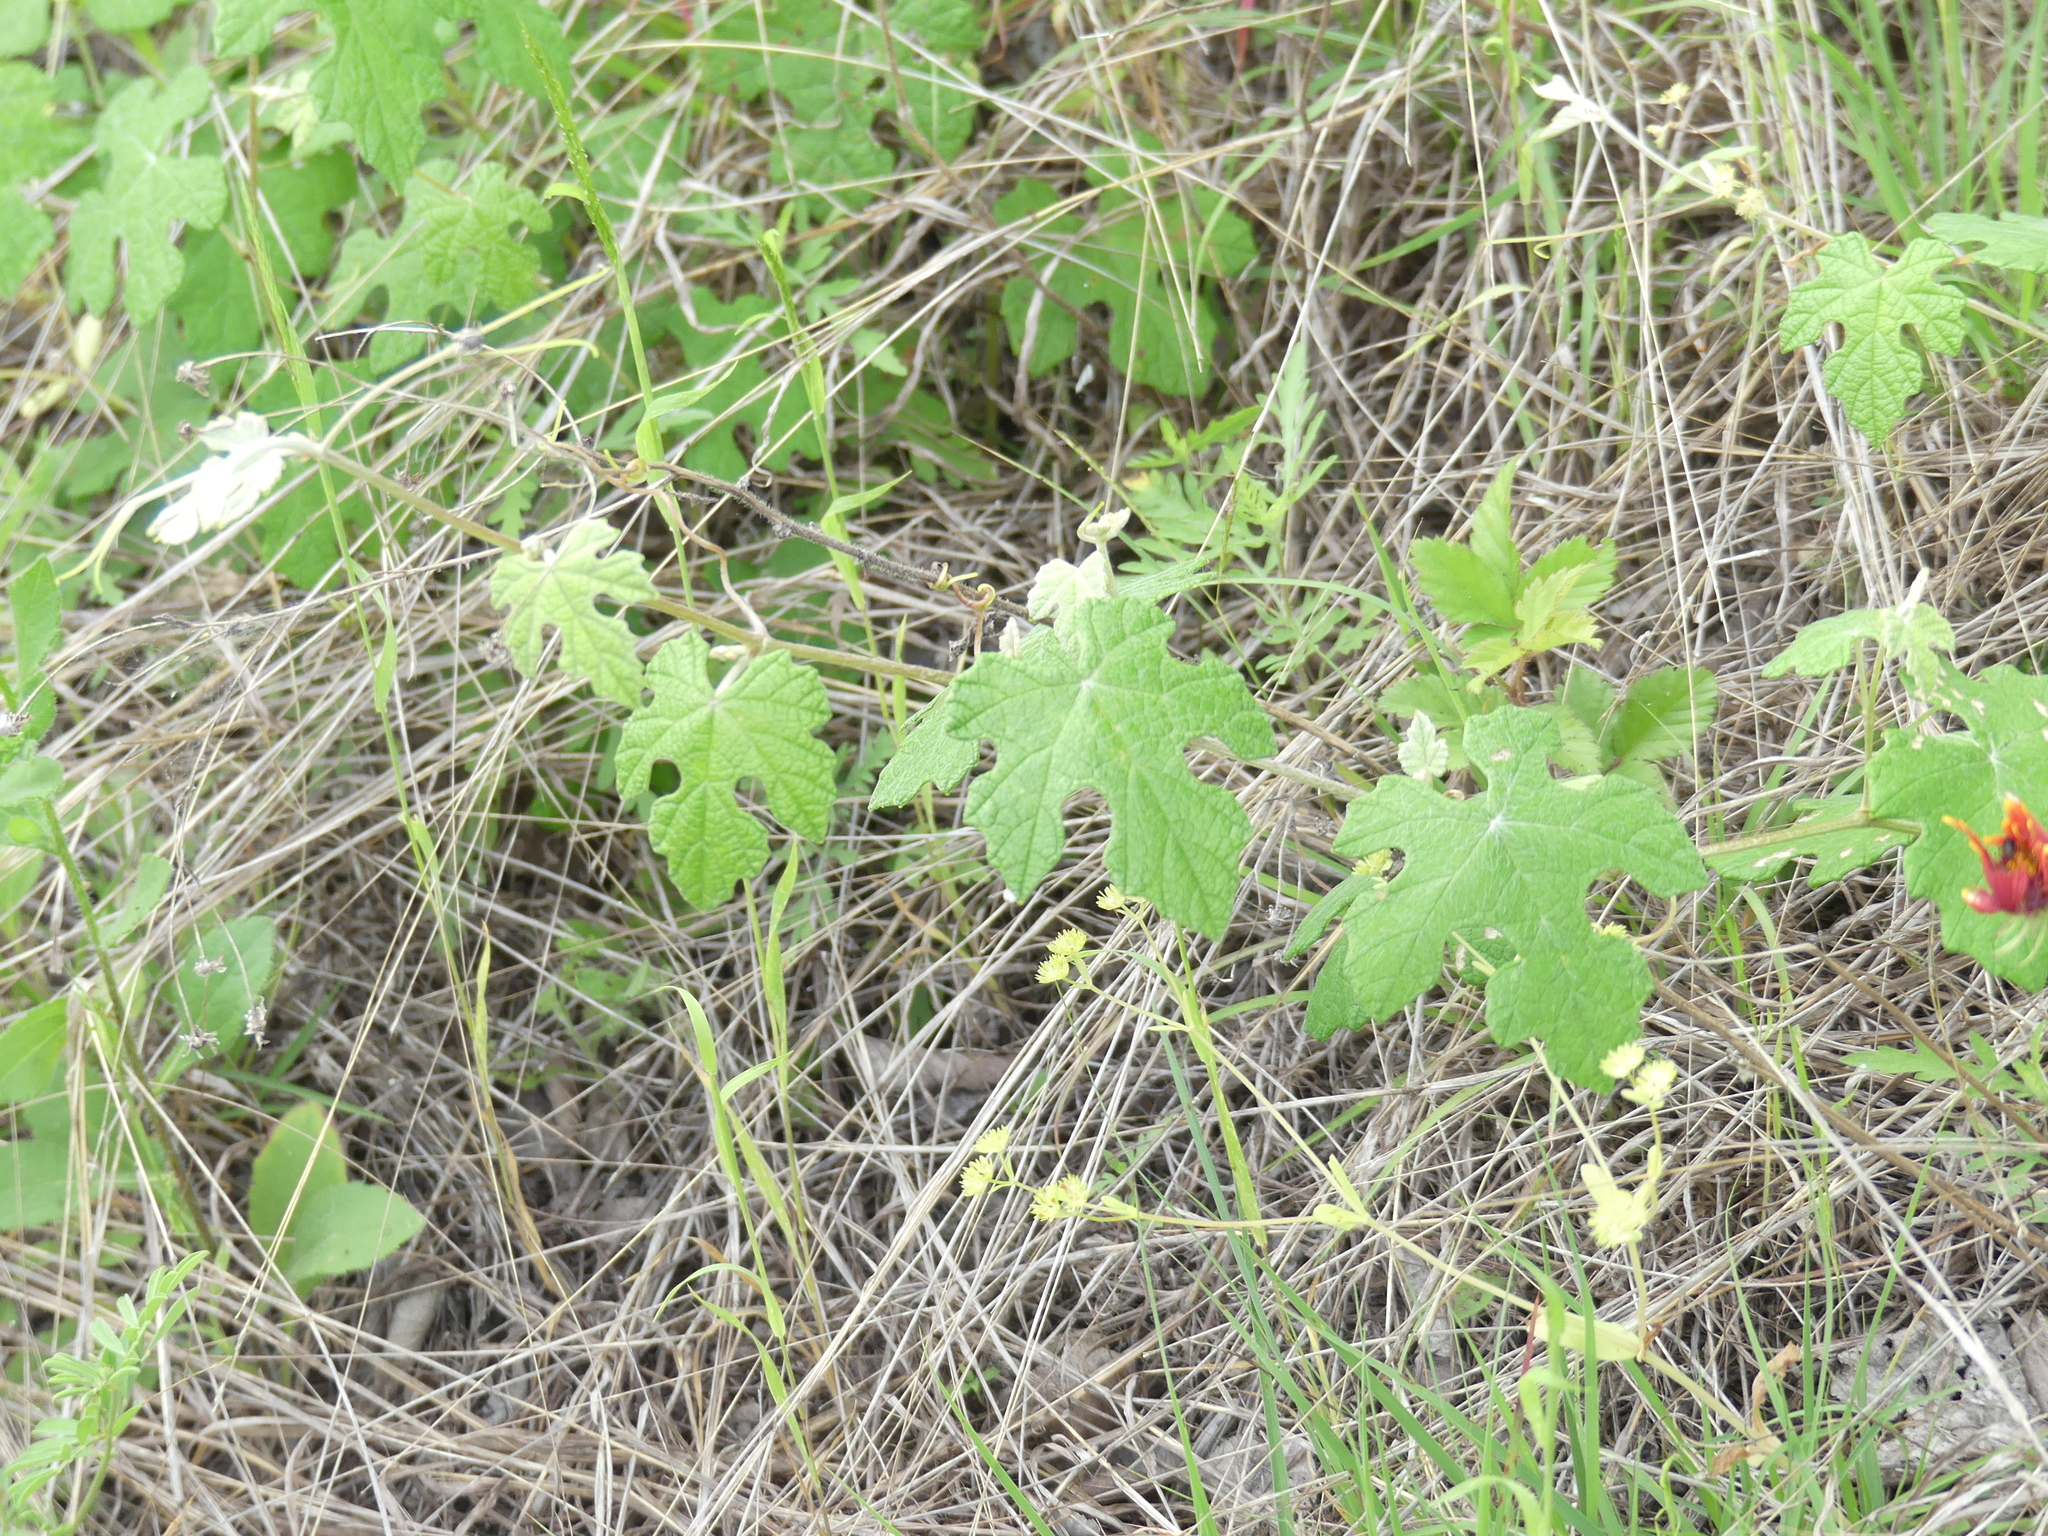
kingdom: Plantae
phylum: Tracheophyta
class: Magnoliopsida
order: Vitales
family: Vitaceae
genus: Vitis
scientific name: Vitis mustangensis
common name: Mustang grape
